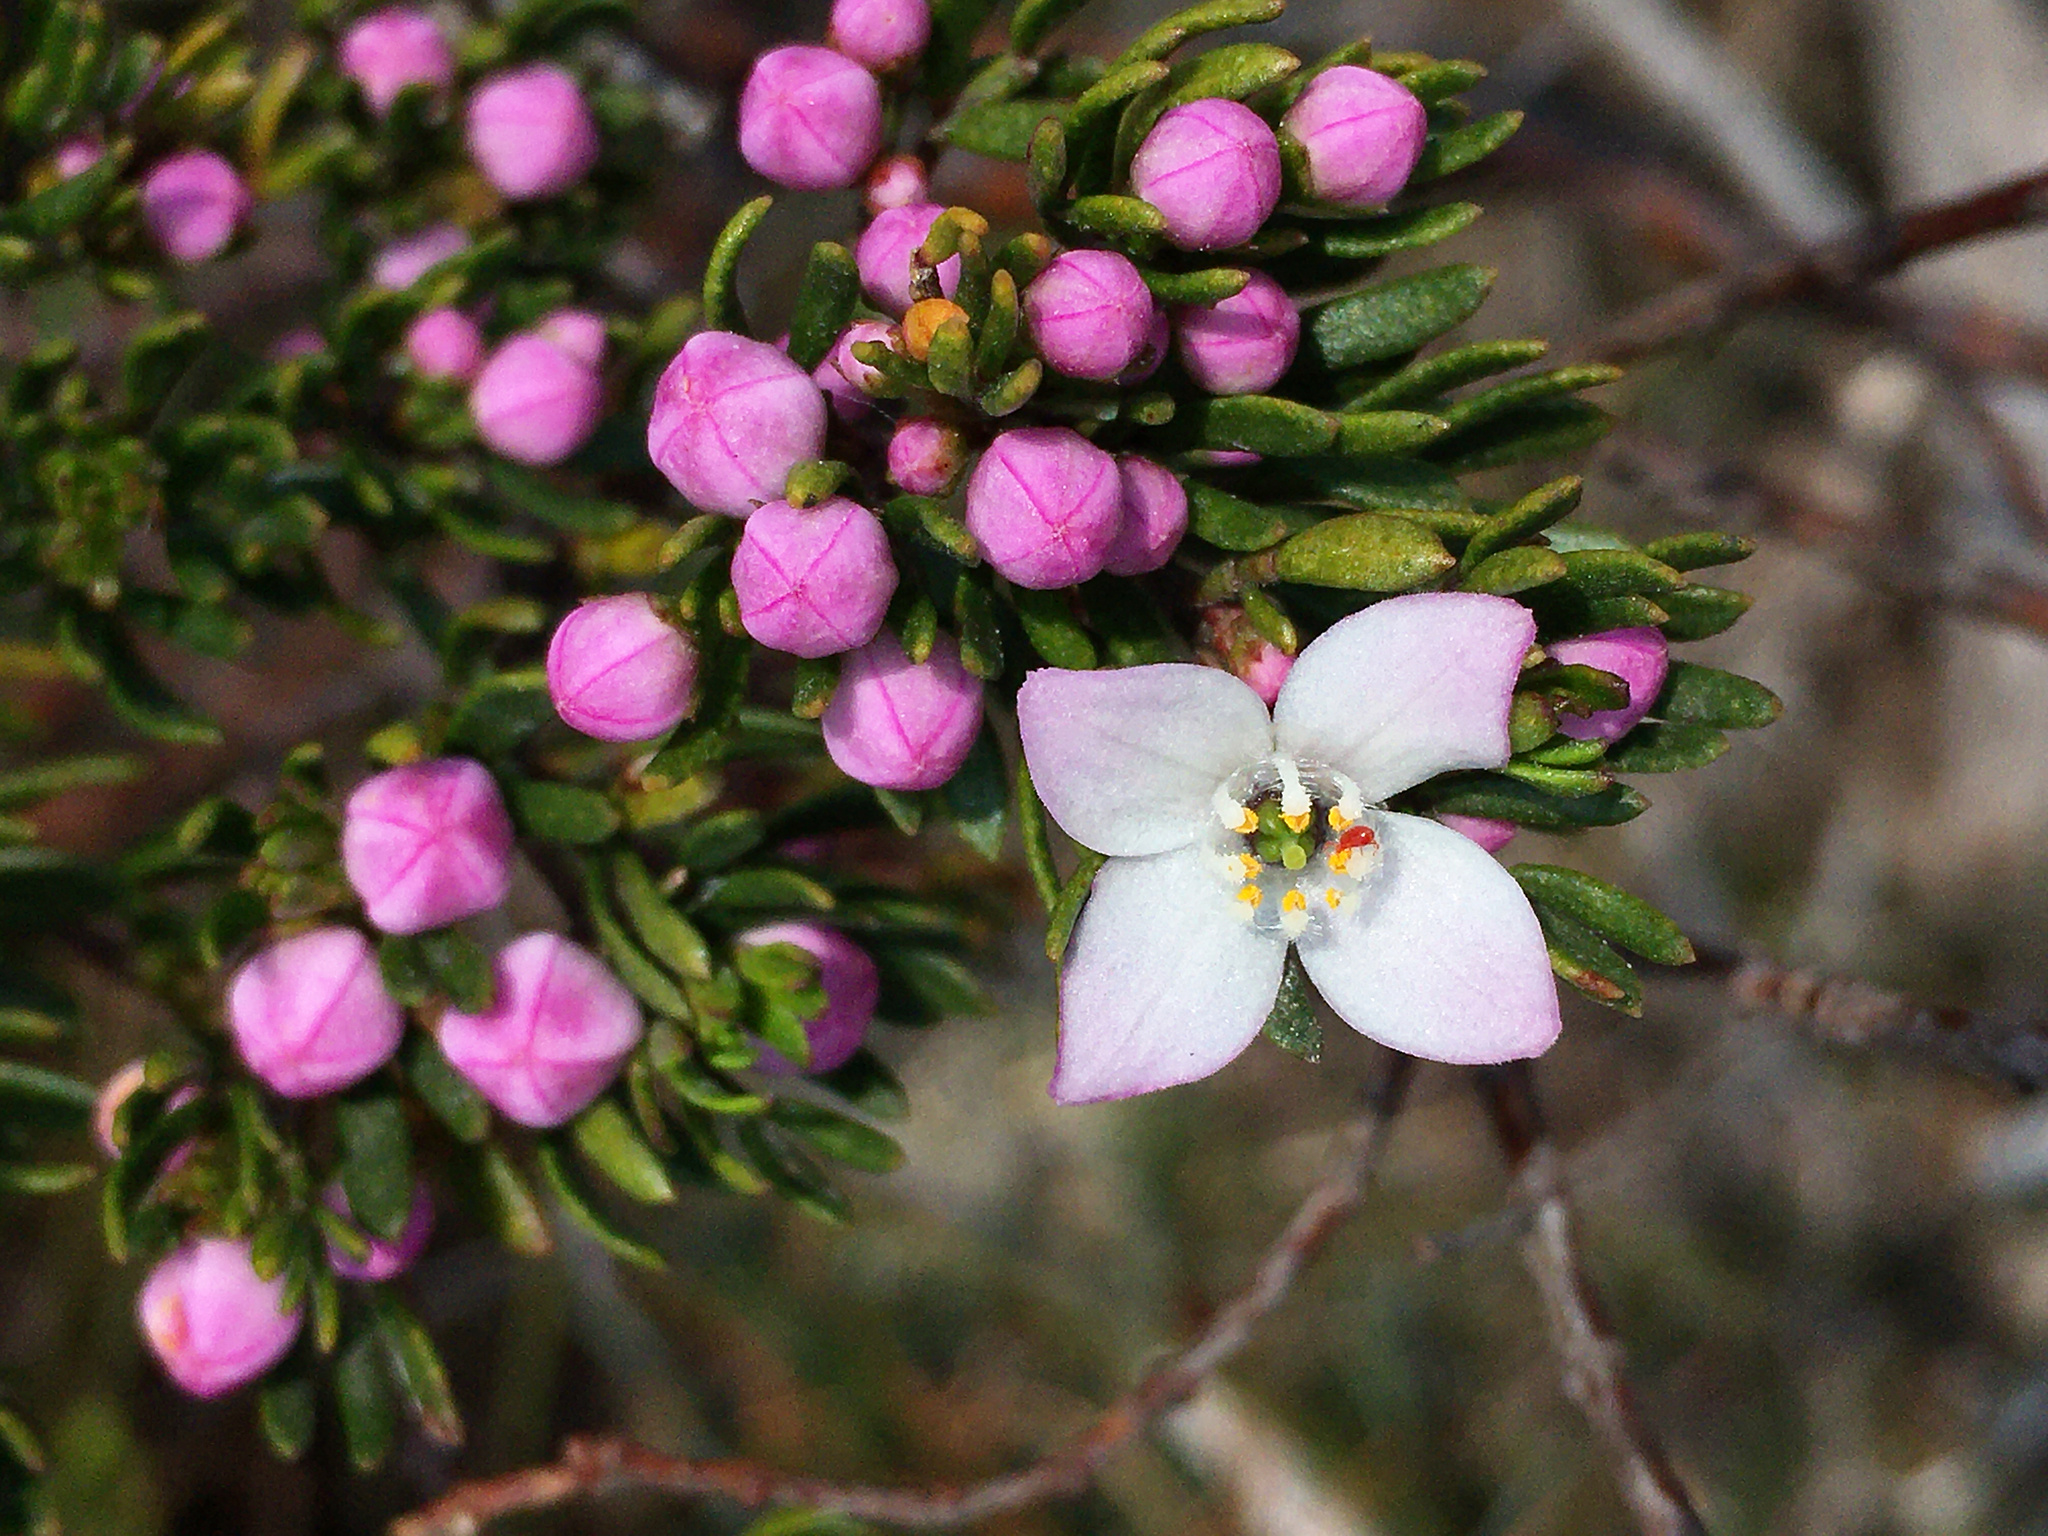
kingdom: Plantae
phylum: Tracheophyta
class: Magnoliopsida
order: Sapindales
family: Rutaceae
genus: Boronia
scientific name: Boronia citriodora
